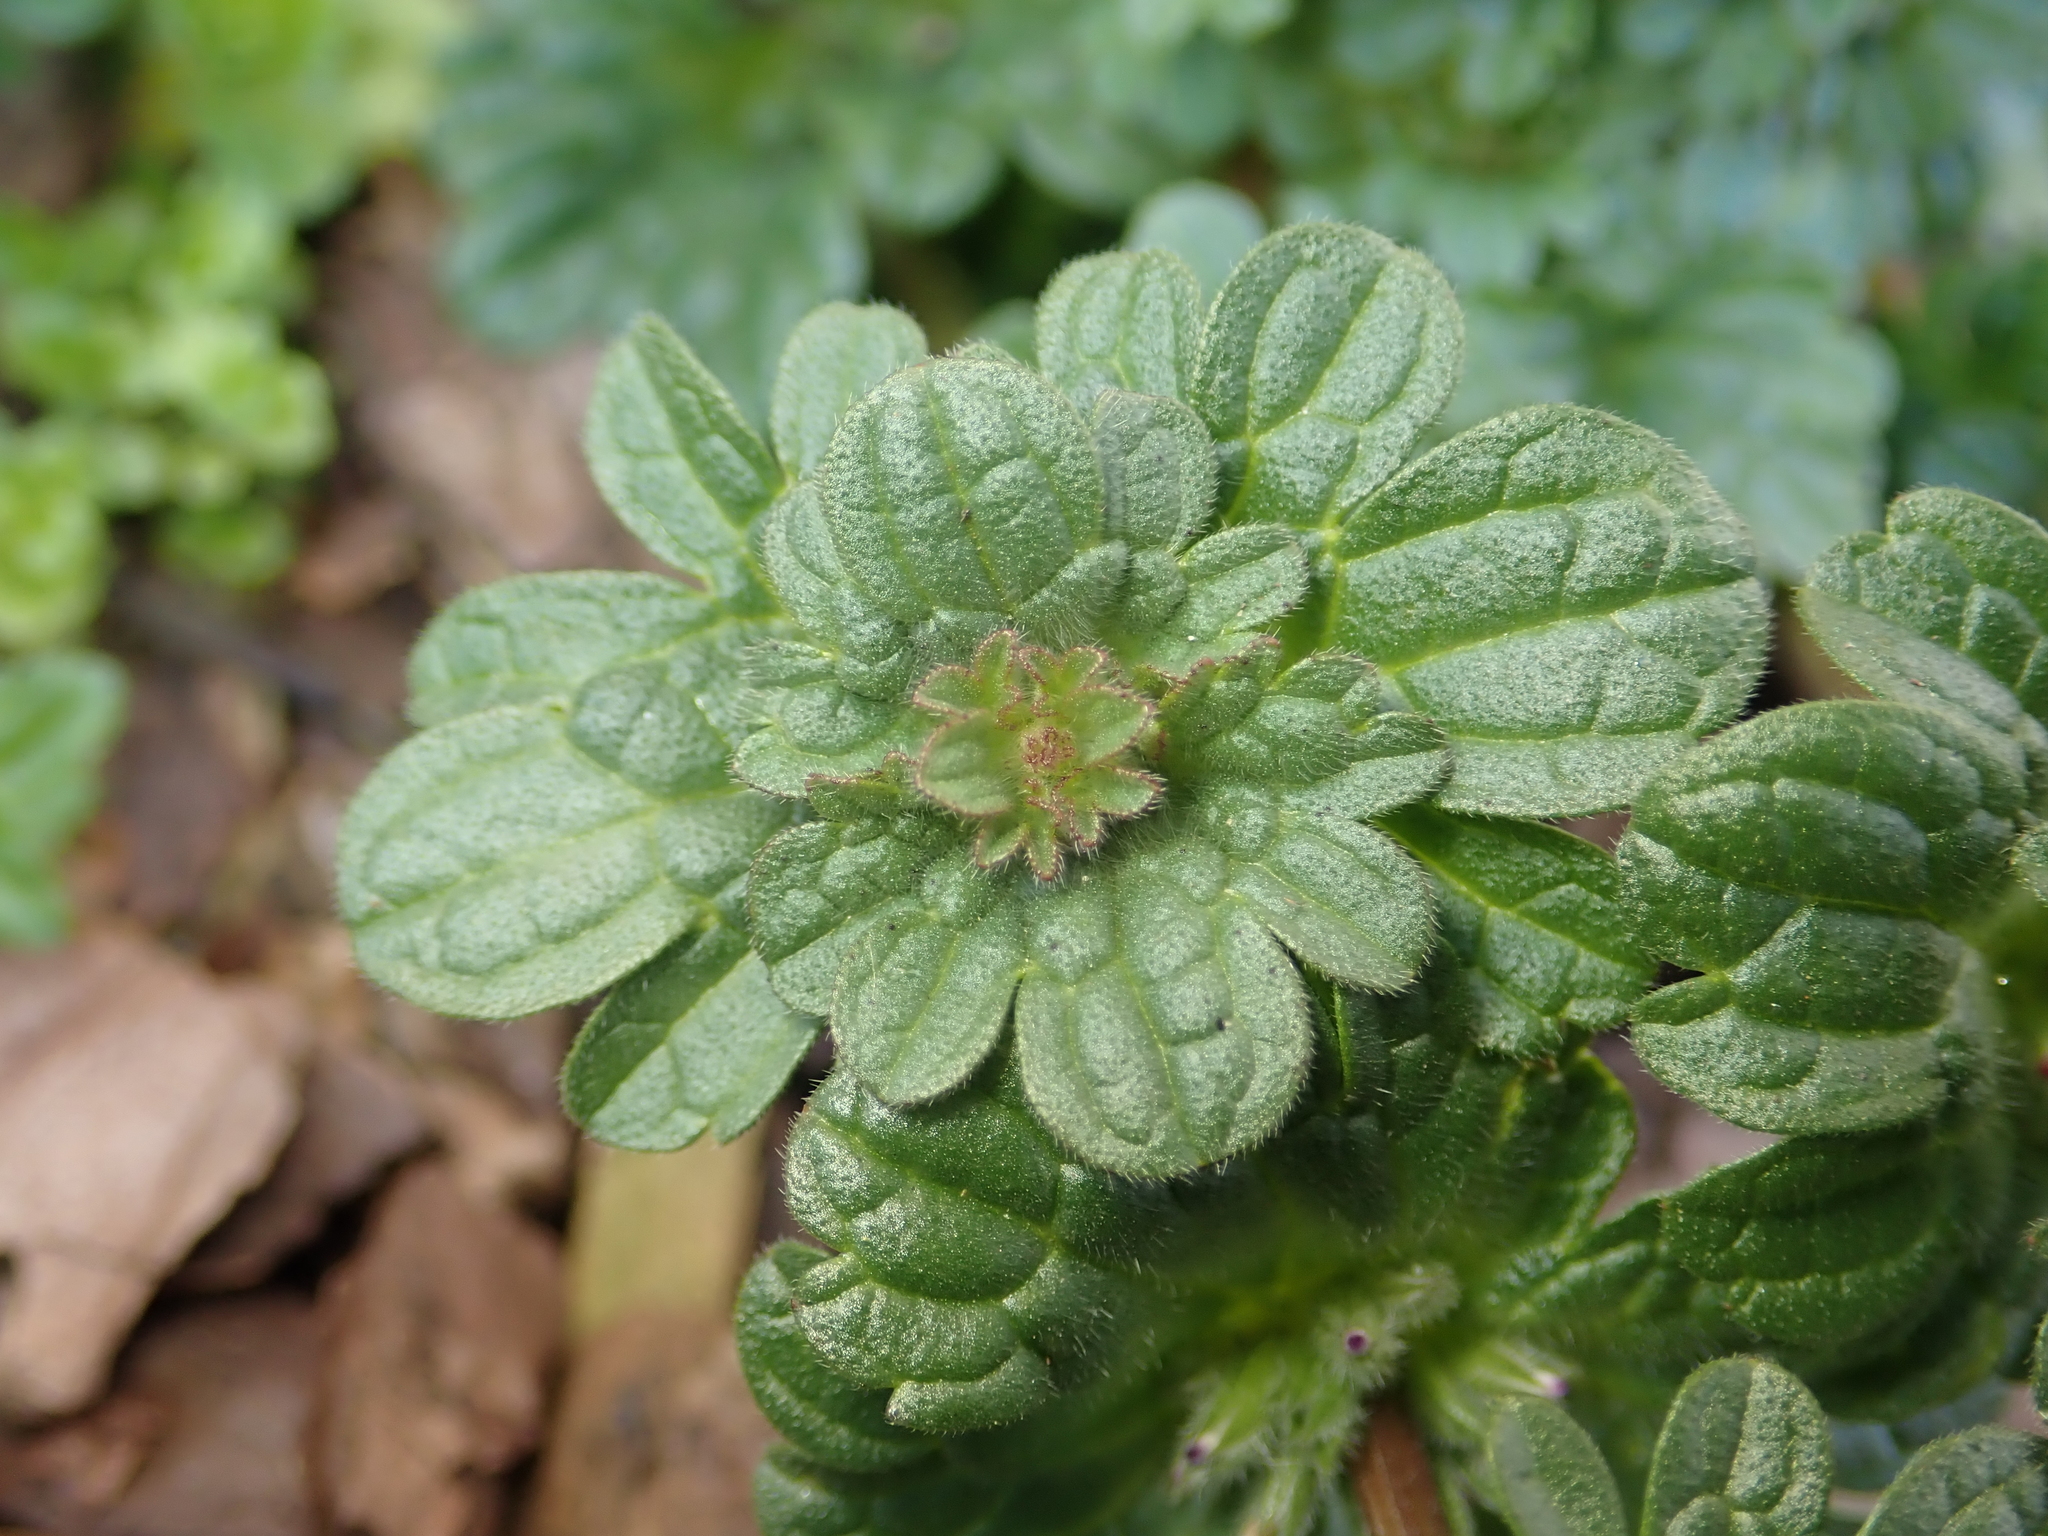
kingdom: Plantae
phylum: Tracheophyta
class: Magnoliopsida
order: Lamiales
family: Lamiaceae
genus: Lamium
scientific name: Lamium amplexicaule
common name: Henbit dead-nettle
